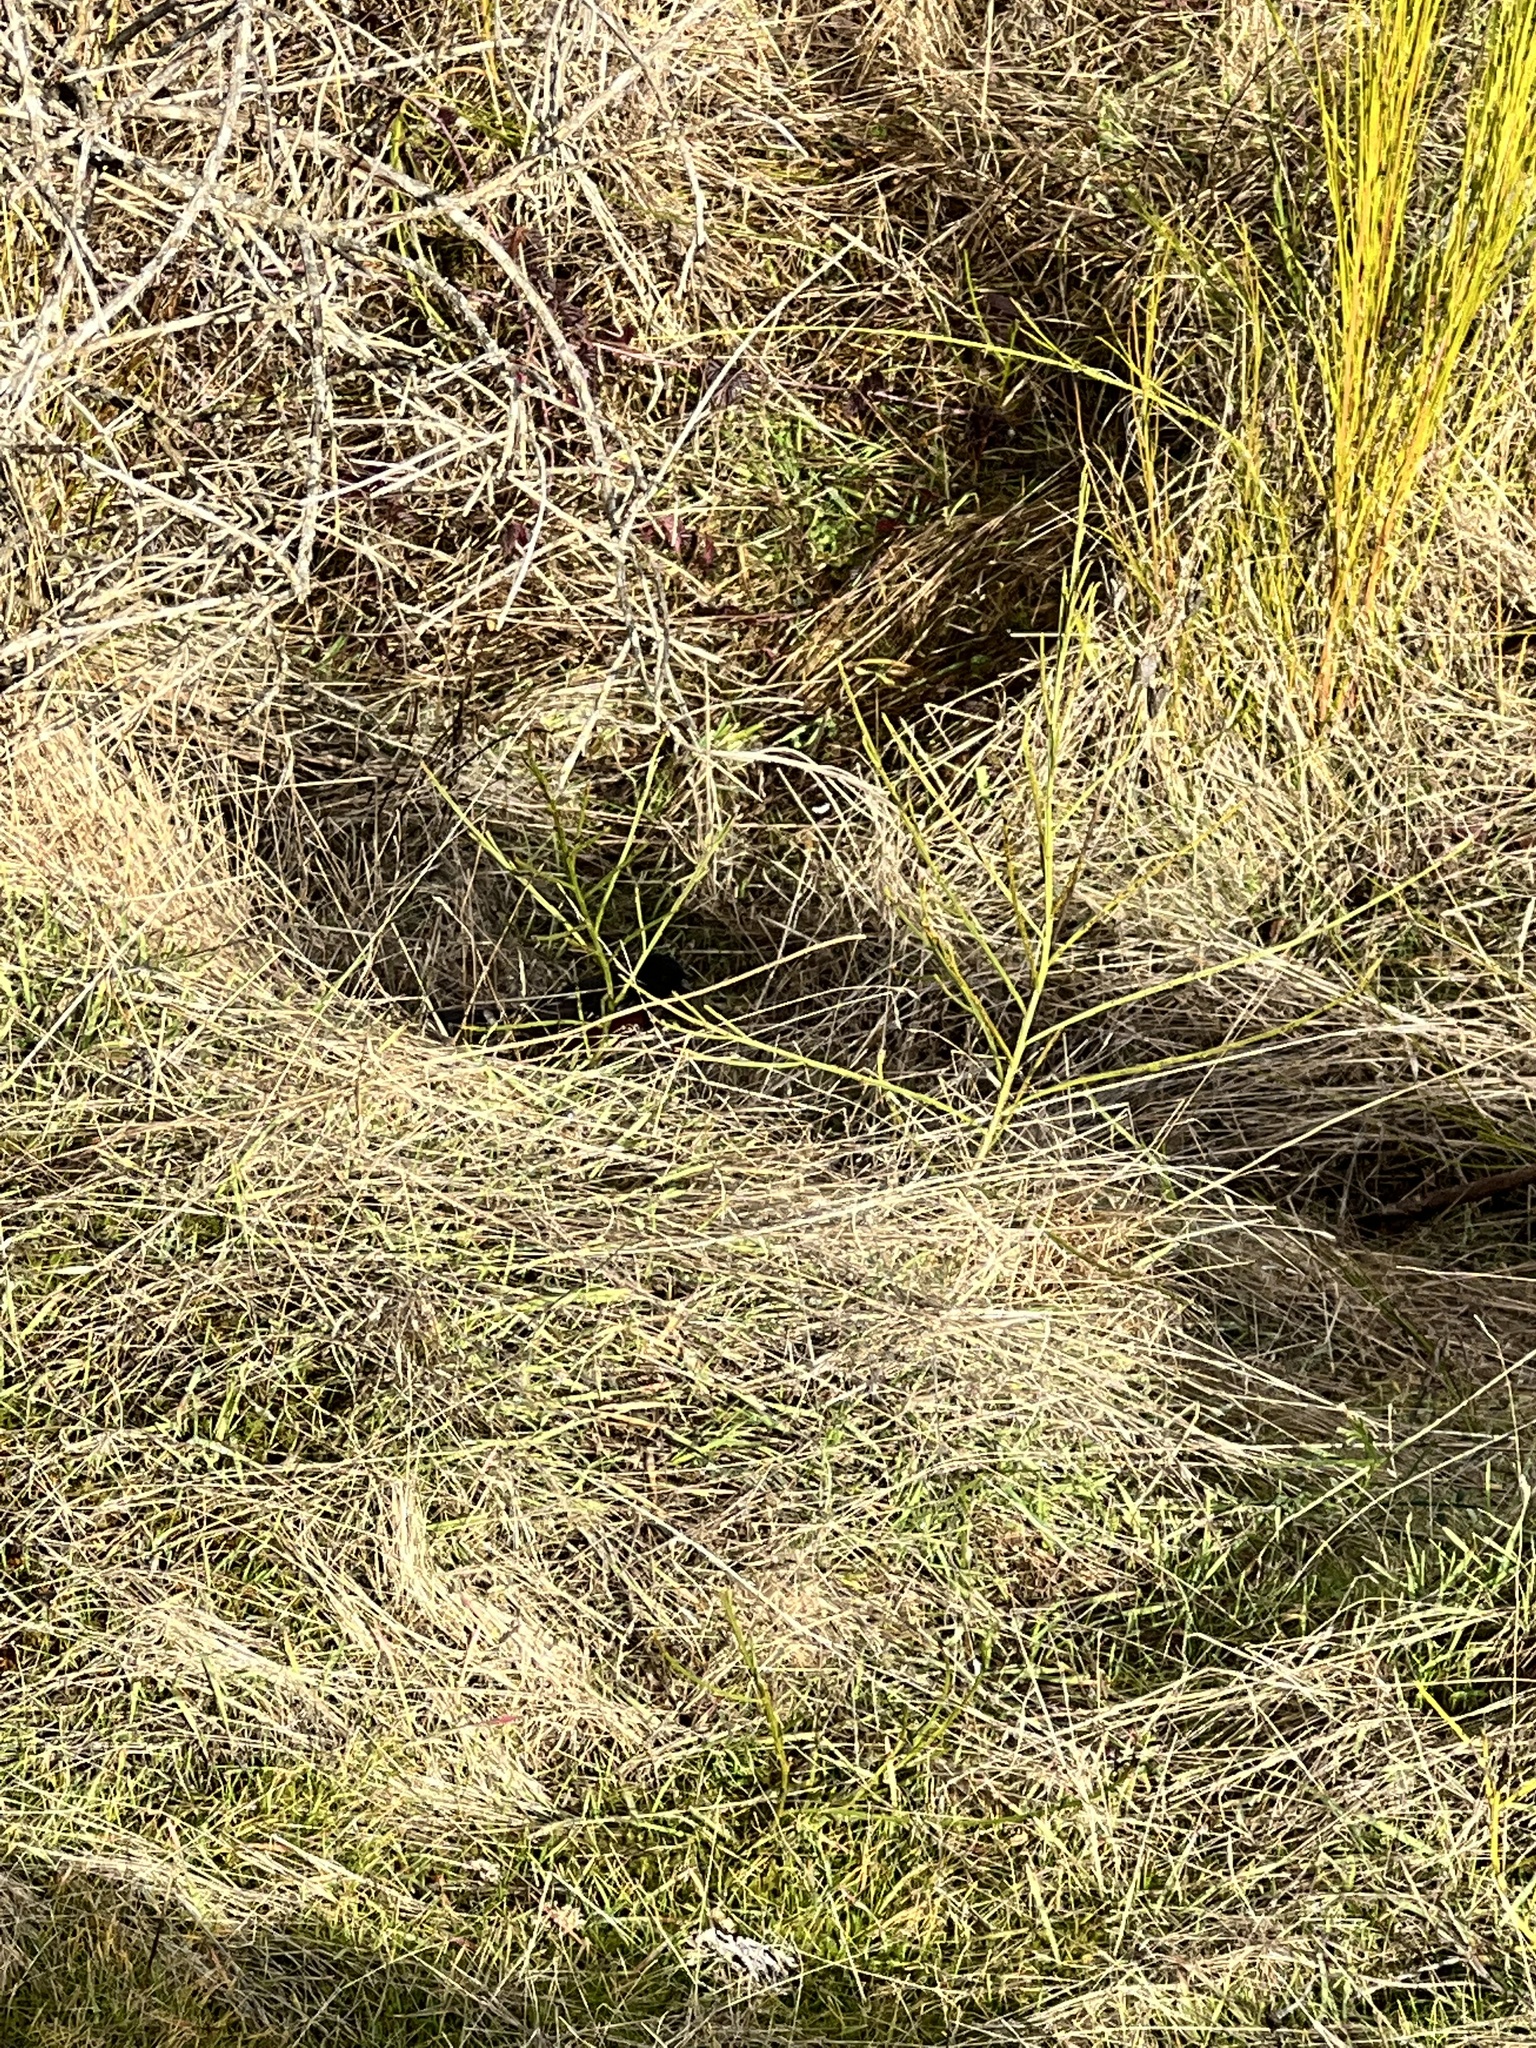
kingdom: Plantae
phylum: Tracheophyta
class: Magnoliopsida
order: Fabales
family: Fabaceae
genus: Cytisus
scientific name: Cytisus scoparius
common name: Scotch broom
